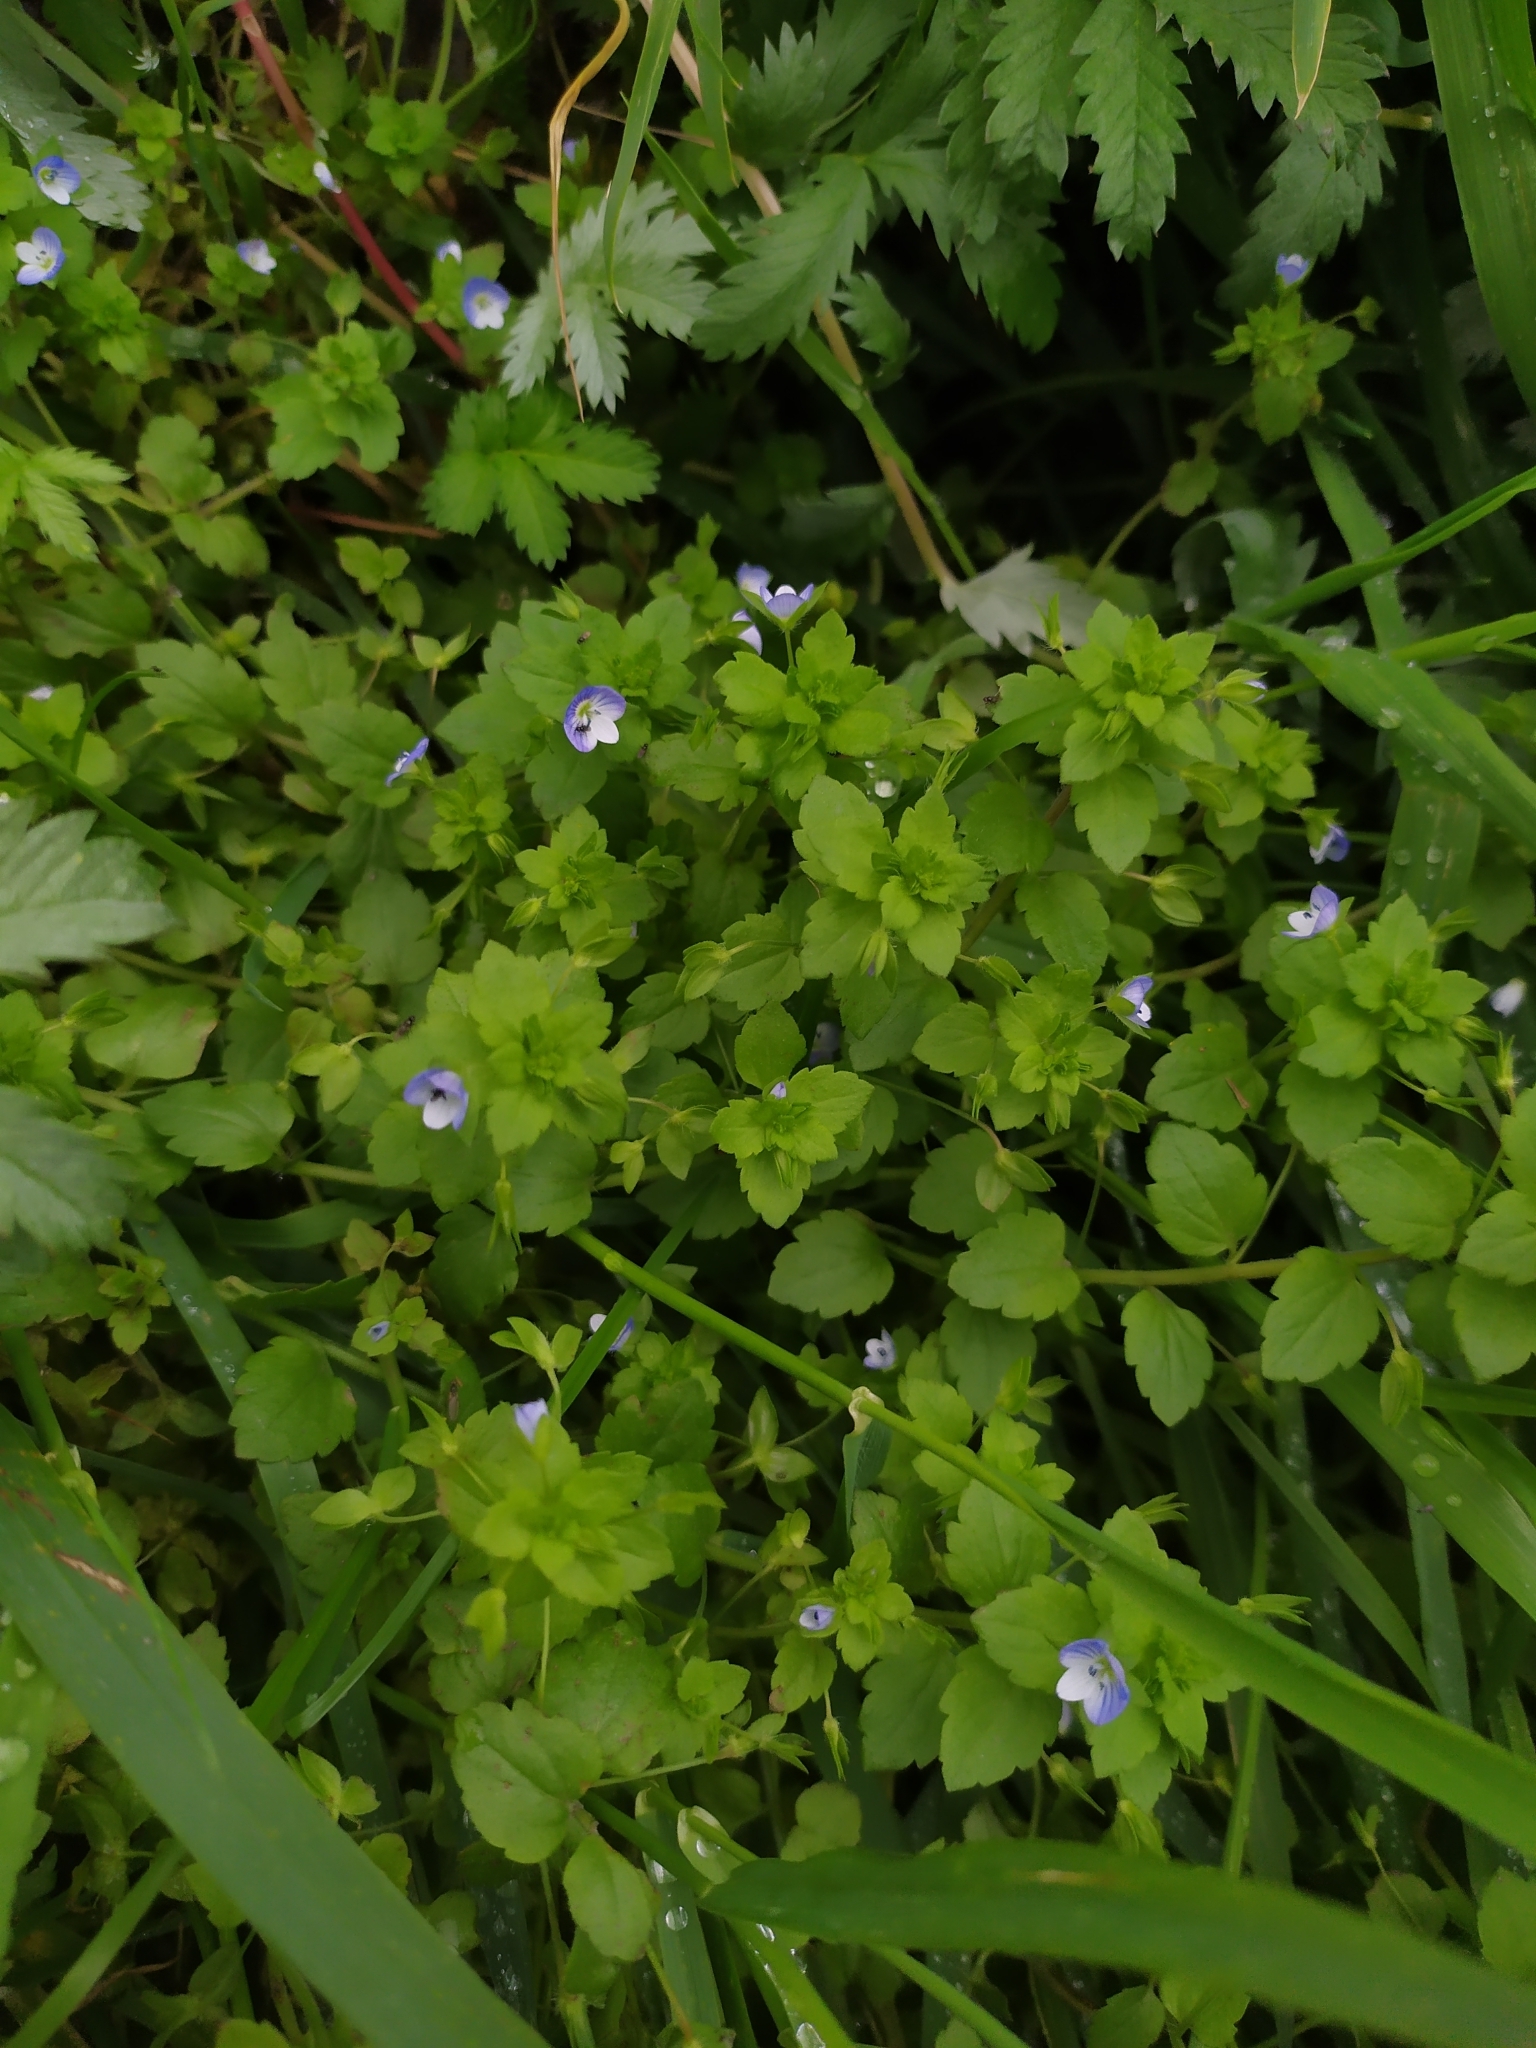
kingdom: Plantae
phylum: Tracheophyta
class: Magnoliopsida
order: Lamiales
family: Plantaginaceae
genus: Veronica
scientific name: Veronica persica
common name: Common field-speedwell
